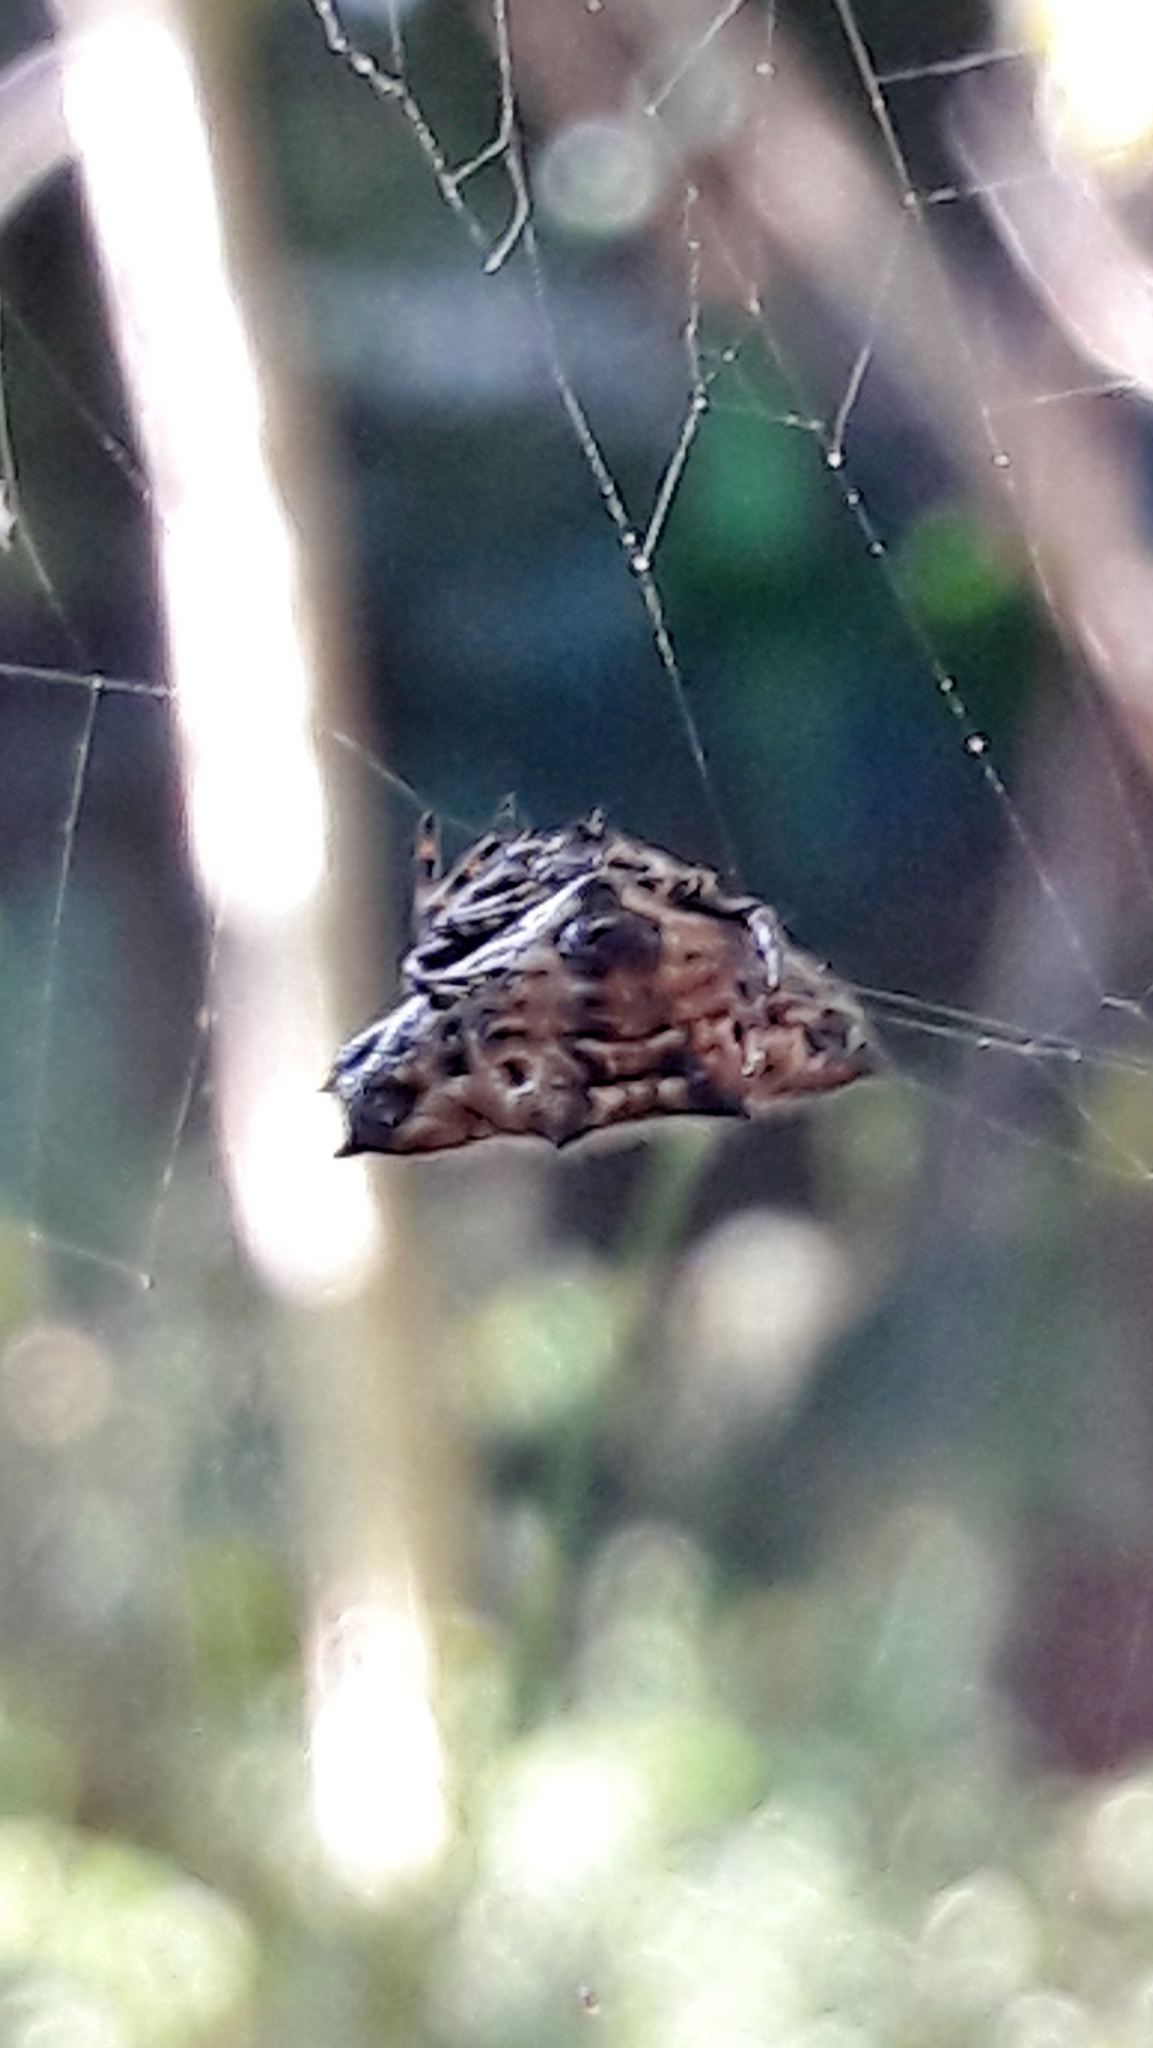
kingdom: Animalia
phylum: Arthropoda
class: Arachnida
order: Araneae
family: Araneidae
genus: Gasteracantha
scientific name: Gasteracantha cancriformis
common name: Orb weavers
